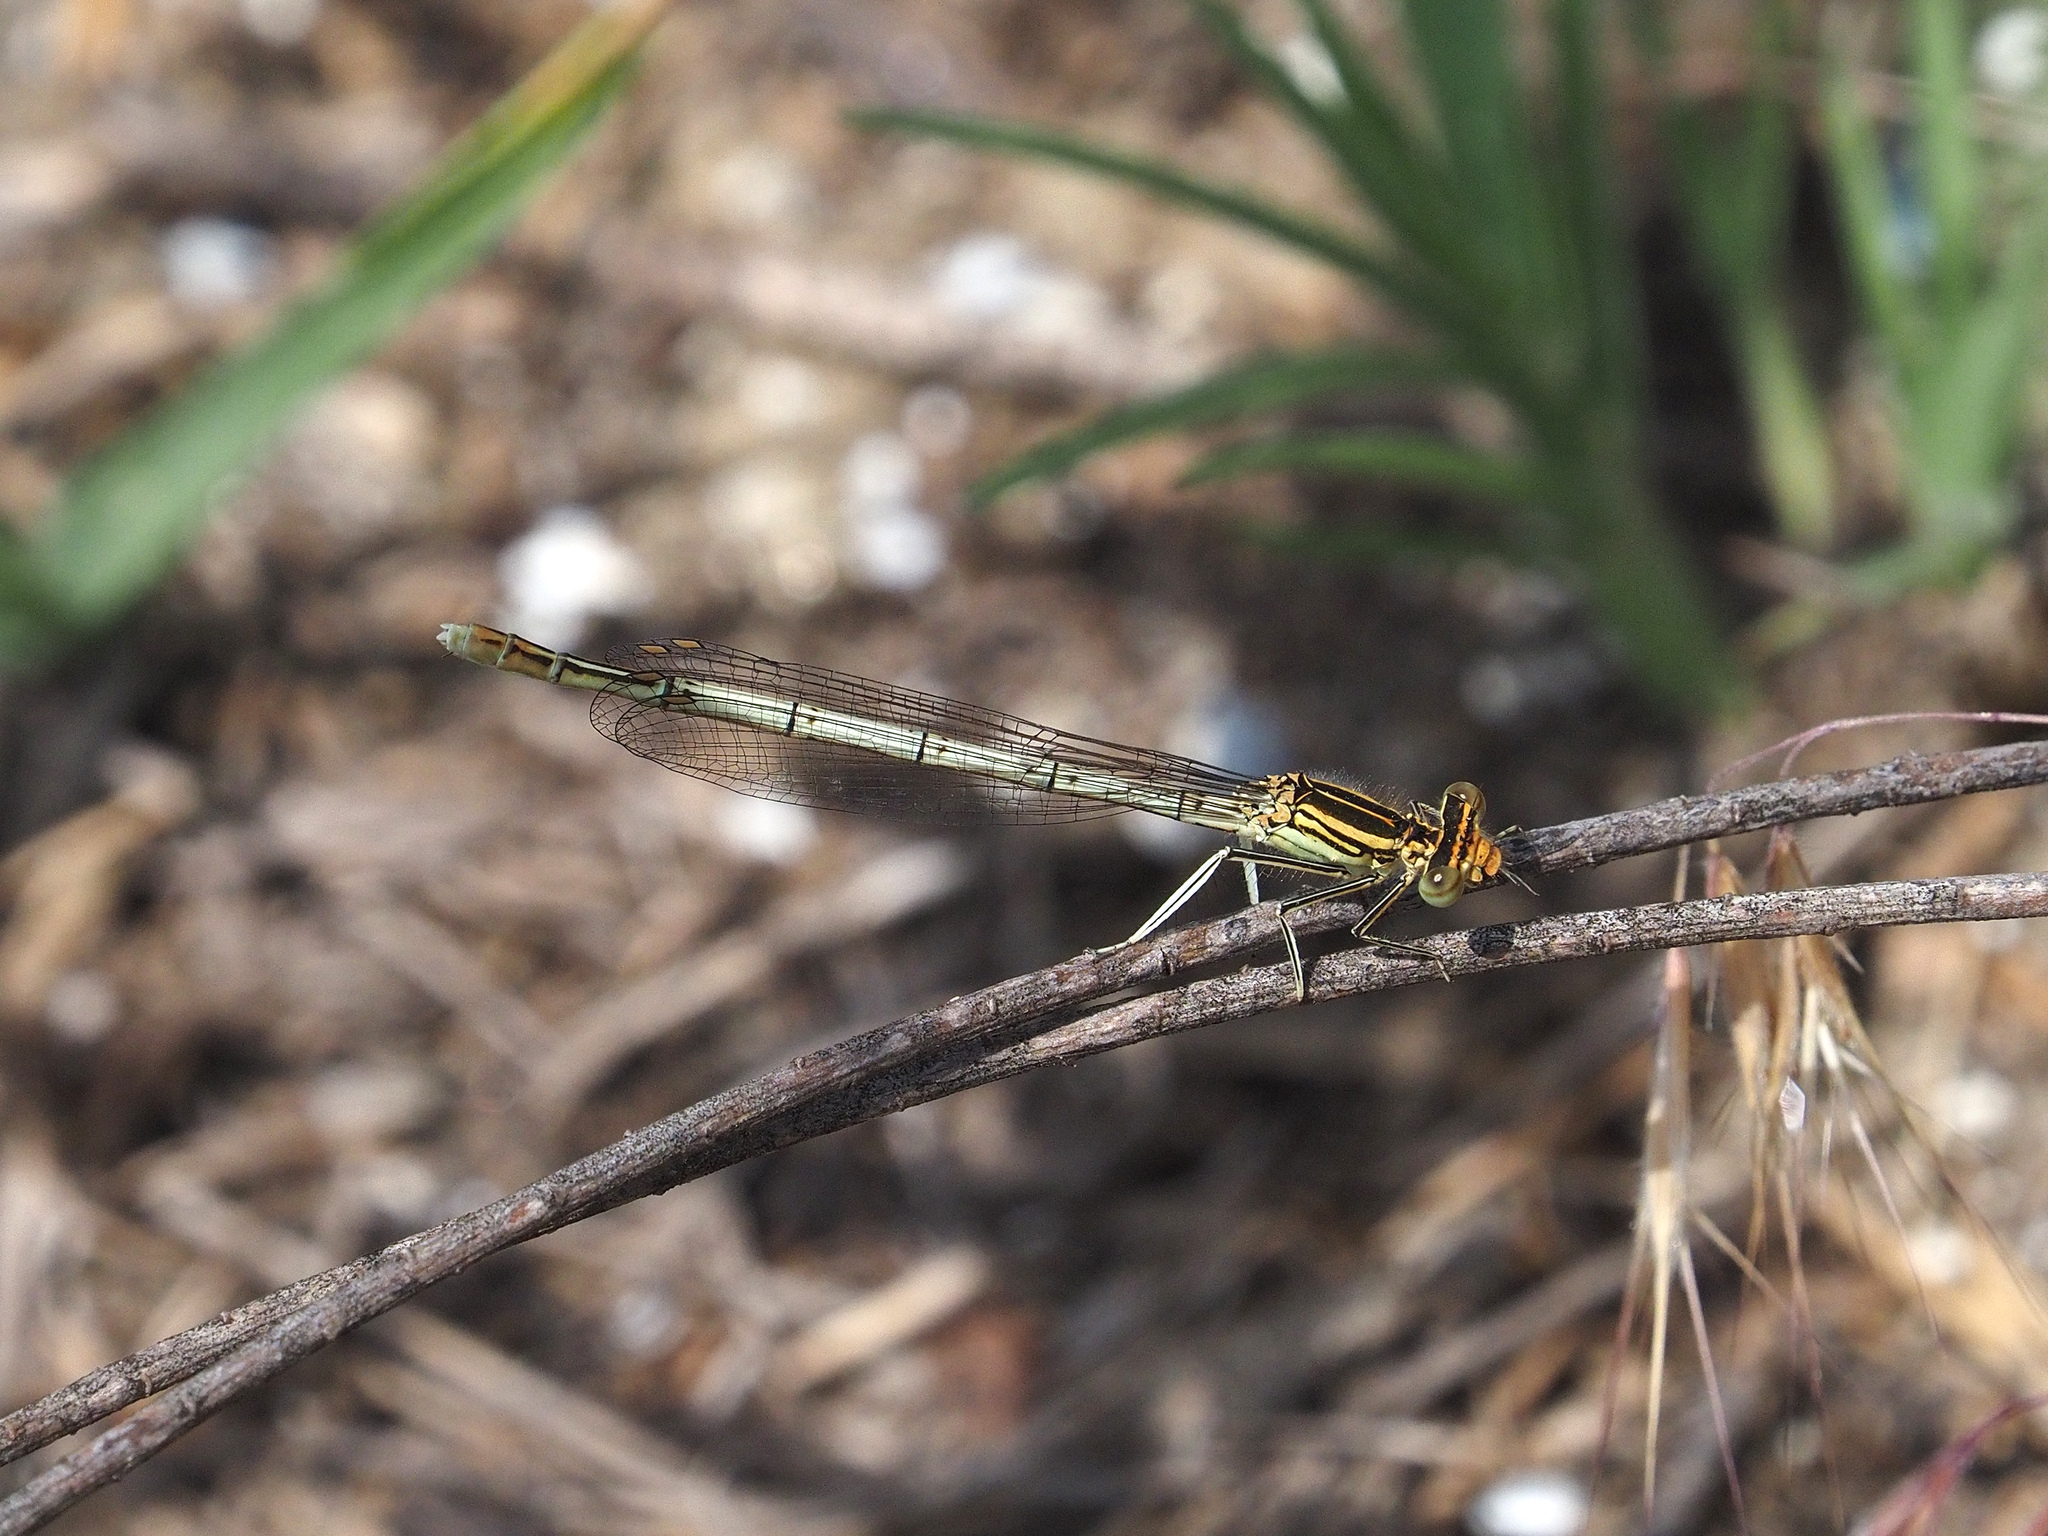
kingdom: Animalia
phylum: Arthropoda
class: Insecta
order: Odonata
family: Platycnemididae
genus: Platycnemis
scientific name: Platycnemis pennipes
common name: White-legged damselfly
